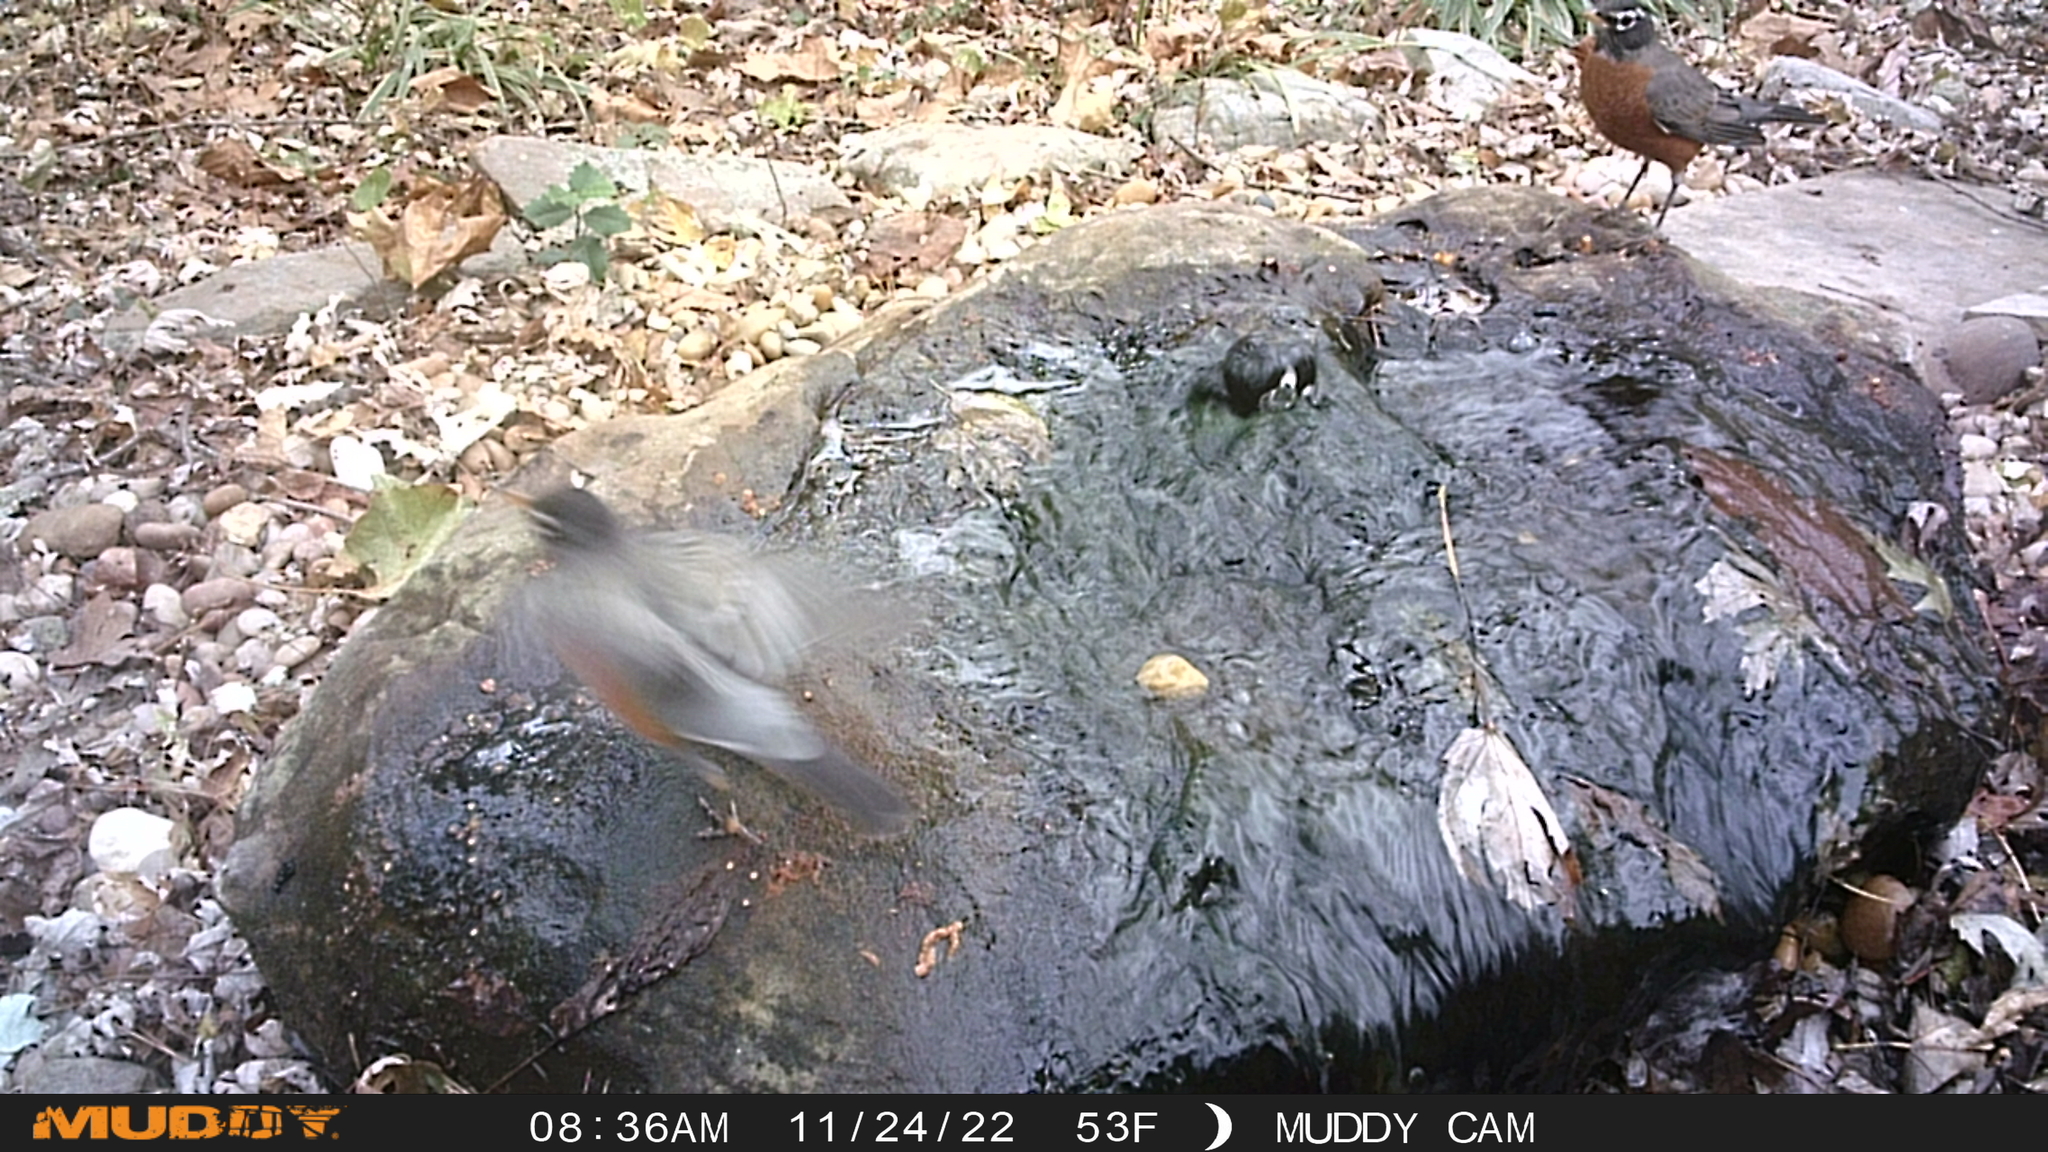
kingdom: Animalia
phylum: Chordata
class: Aves
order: Passeriformes
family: Turdidae
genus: Turdus
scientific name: Turdus migratorius
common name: American robin
